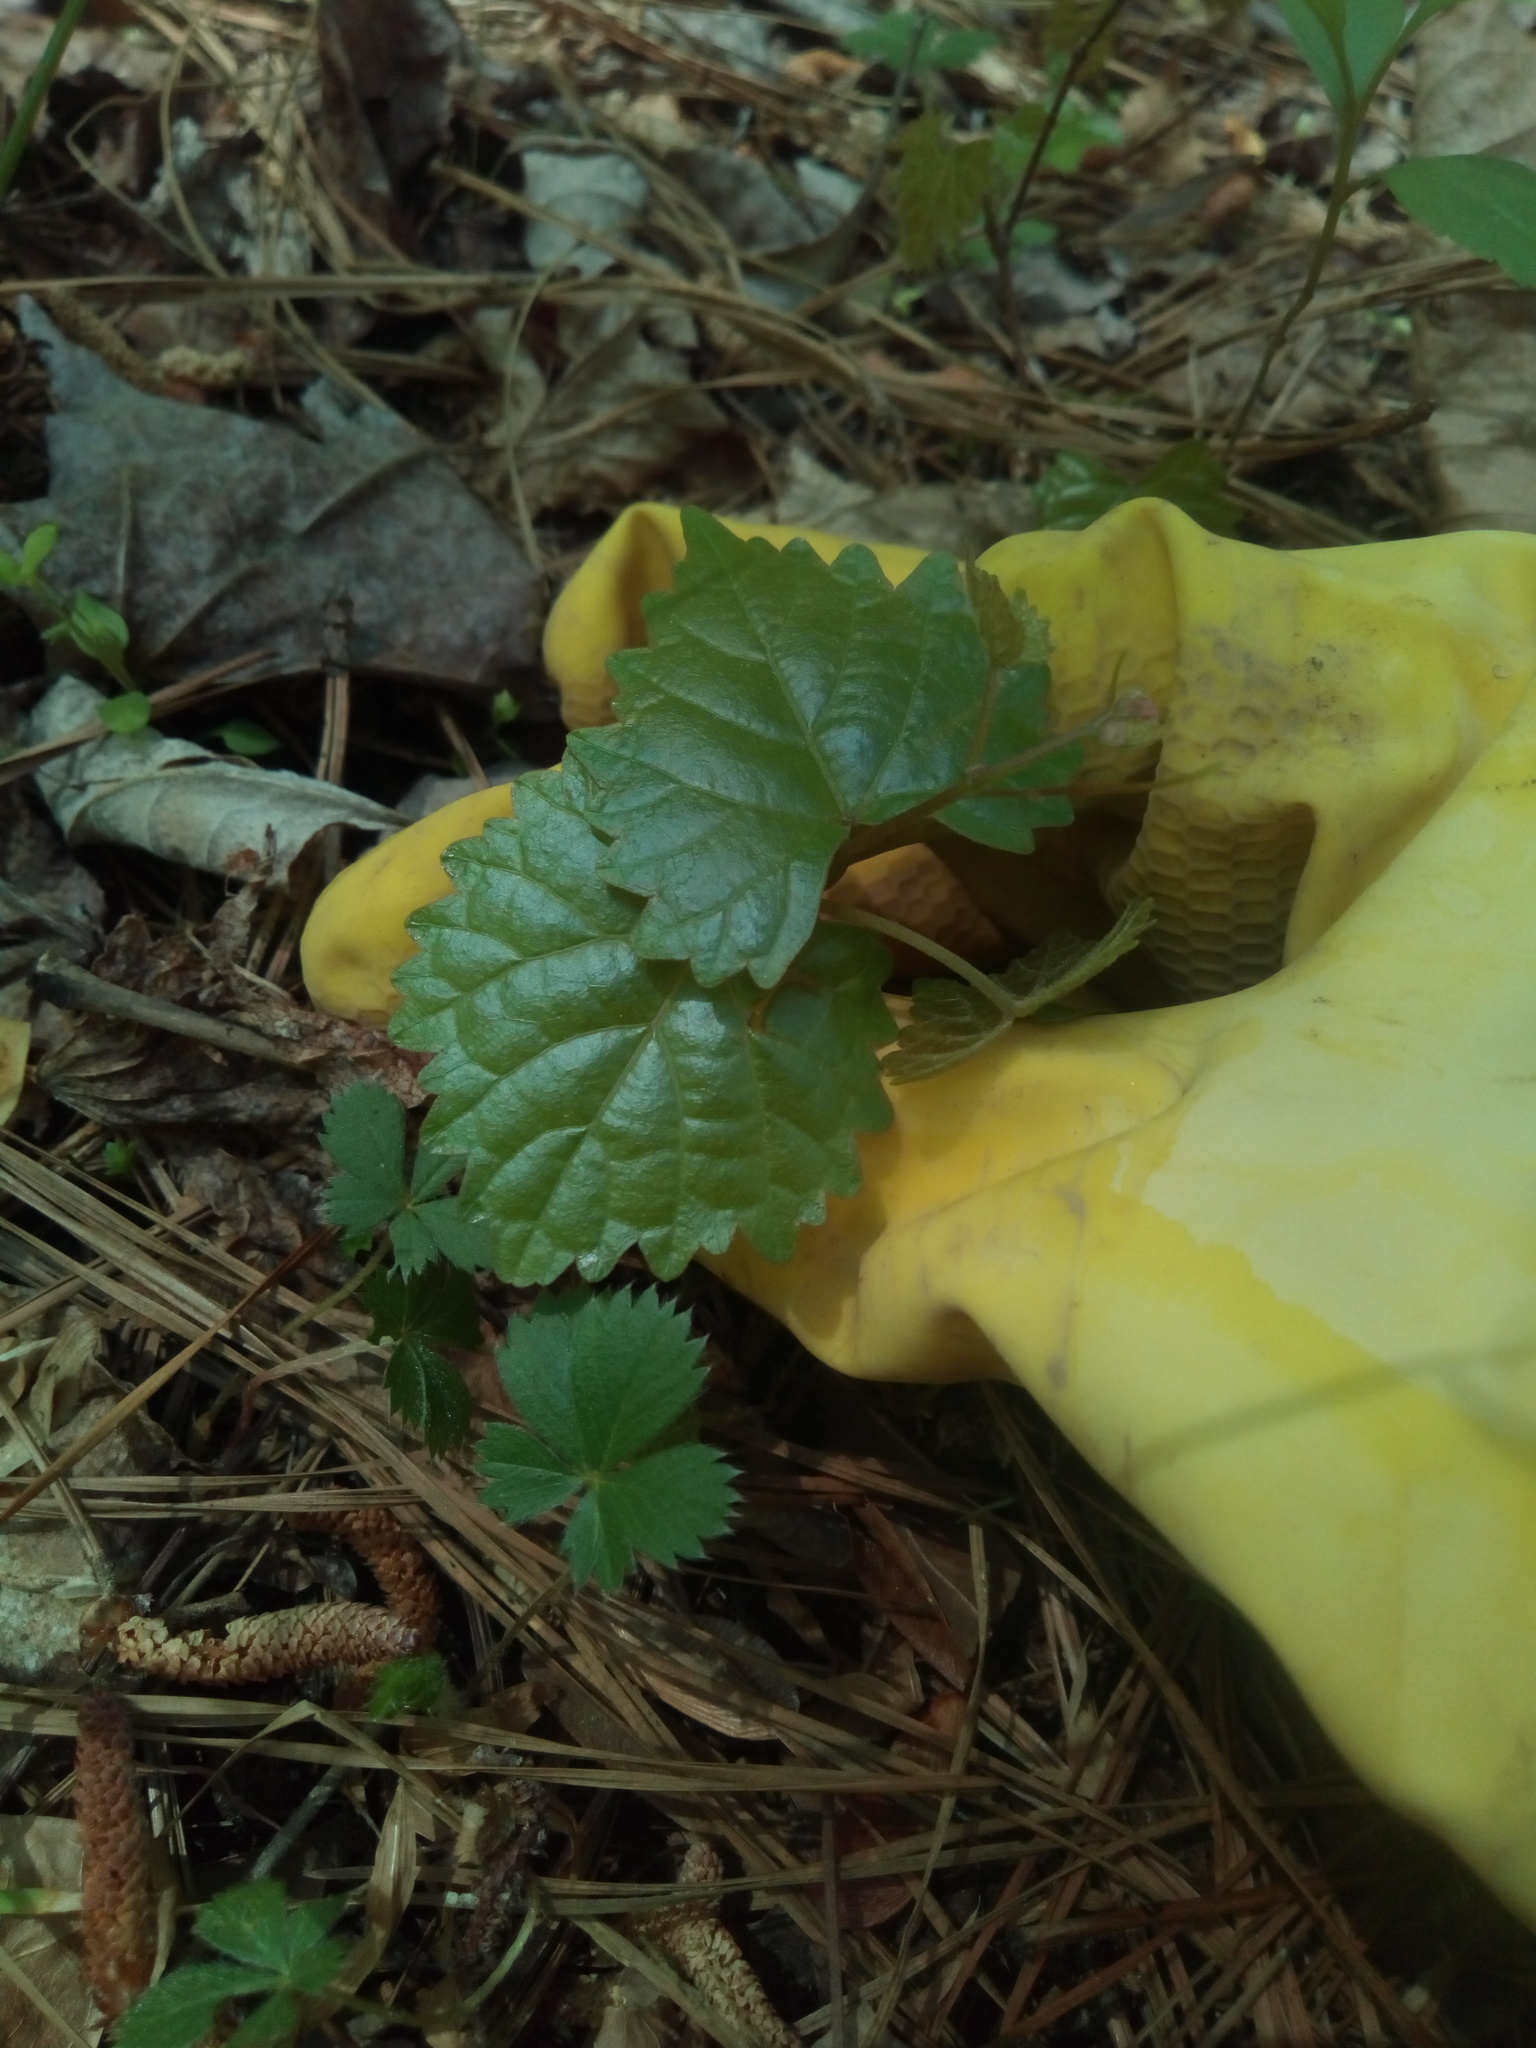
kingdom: Plantae
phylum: Tracheophyta
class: Magnoliopsida
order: Vitales
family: Vitaceae
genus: Vitis
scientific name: Vitis rotundifolia
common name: Muscadine grape
